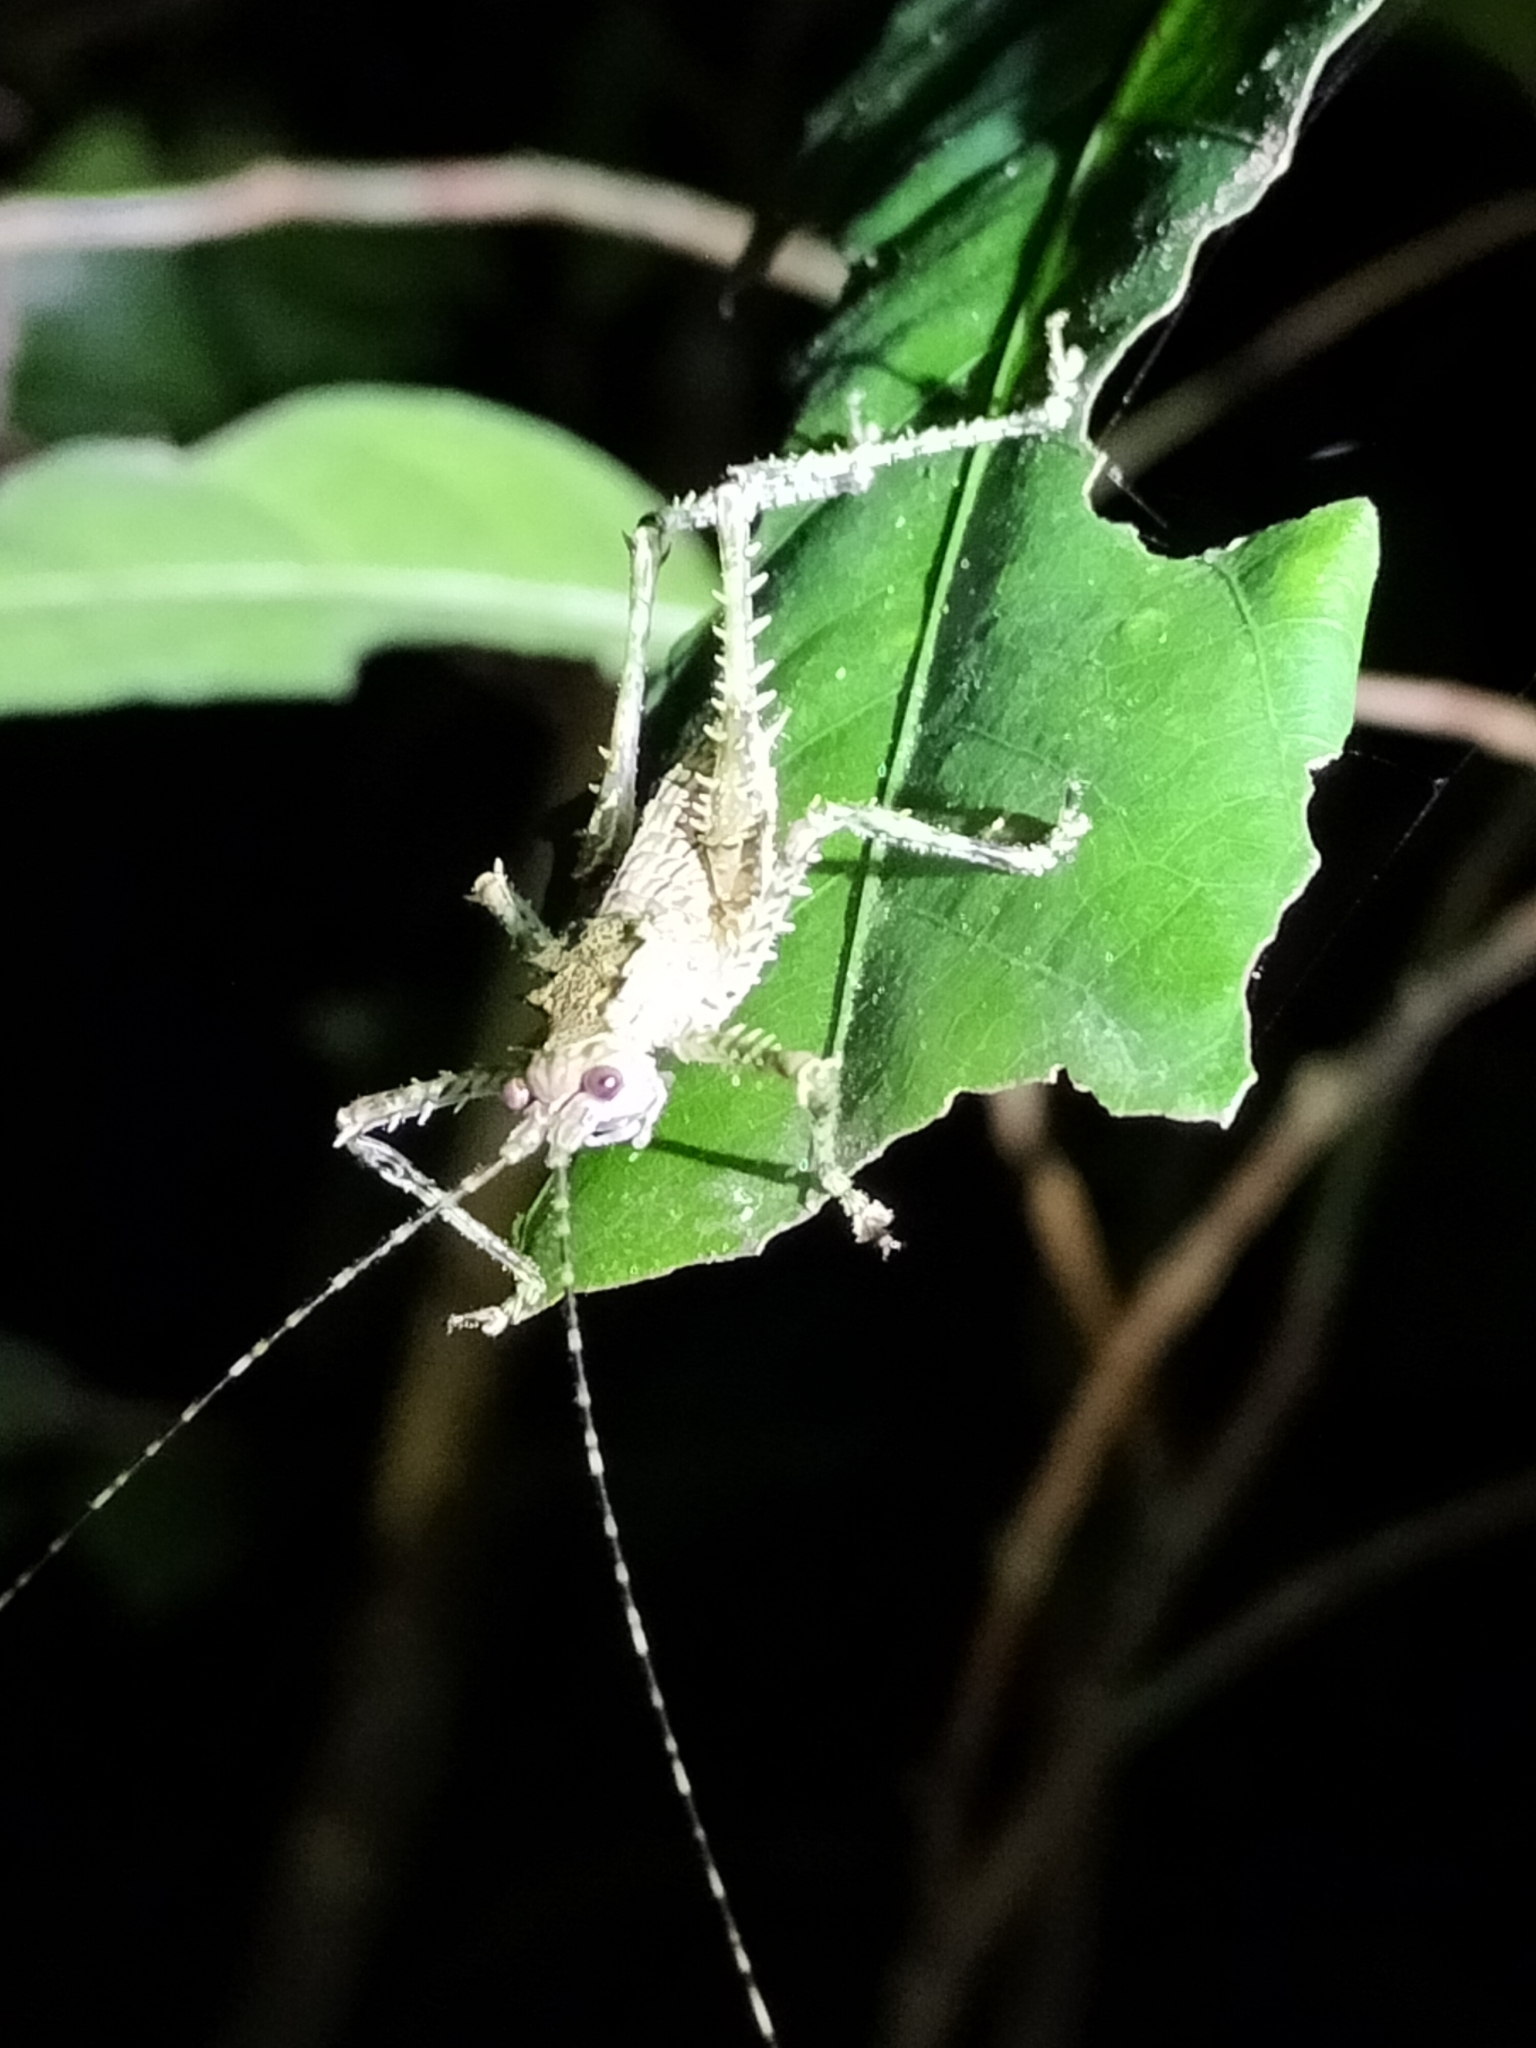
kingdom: Animalia
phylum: Arthropoda
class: Insecta
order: Orthoptera
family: Tettigoniidae
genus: Phricta
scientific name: Phricta spinosa
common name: Giant spiny forest katydid
